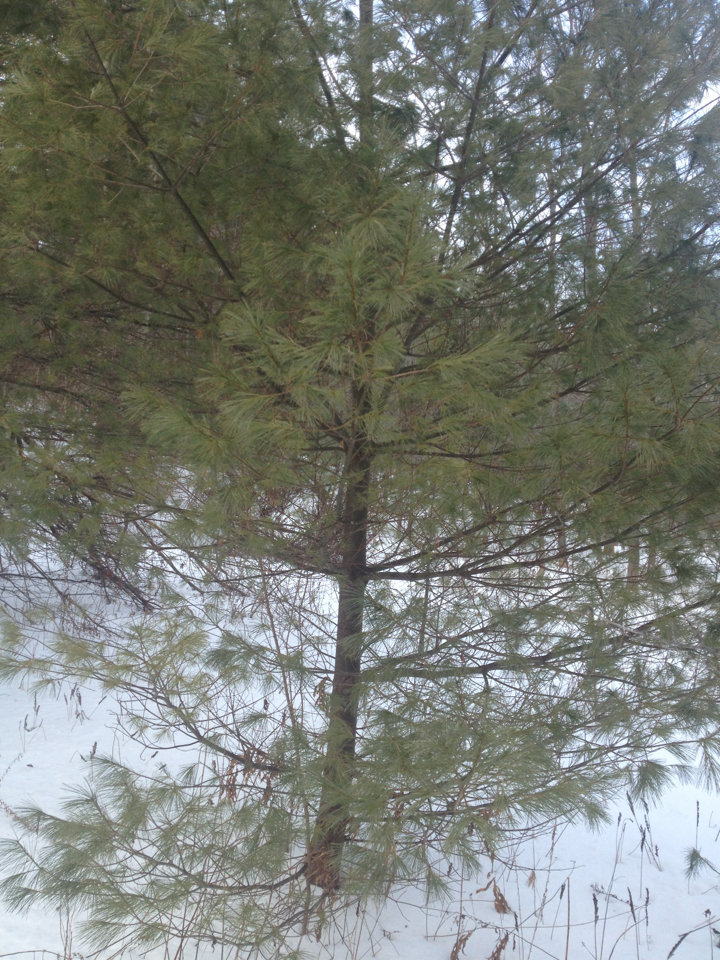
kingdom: Plantae
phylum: Tracheophyta
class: Pinopsida
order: Pinales
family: Pinaceae
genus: Pinus
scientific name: Pinus strobus
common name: Weymouth pine
